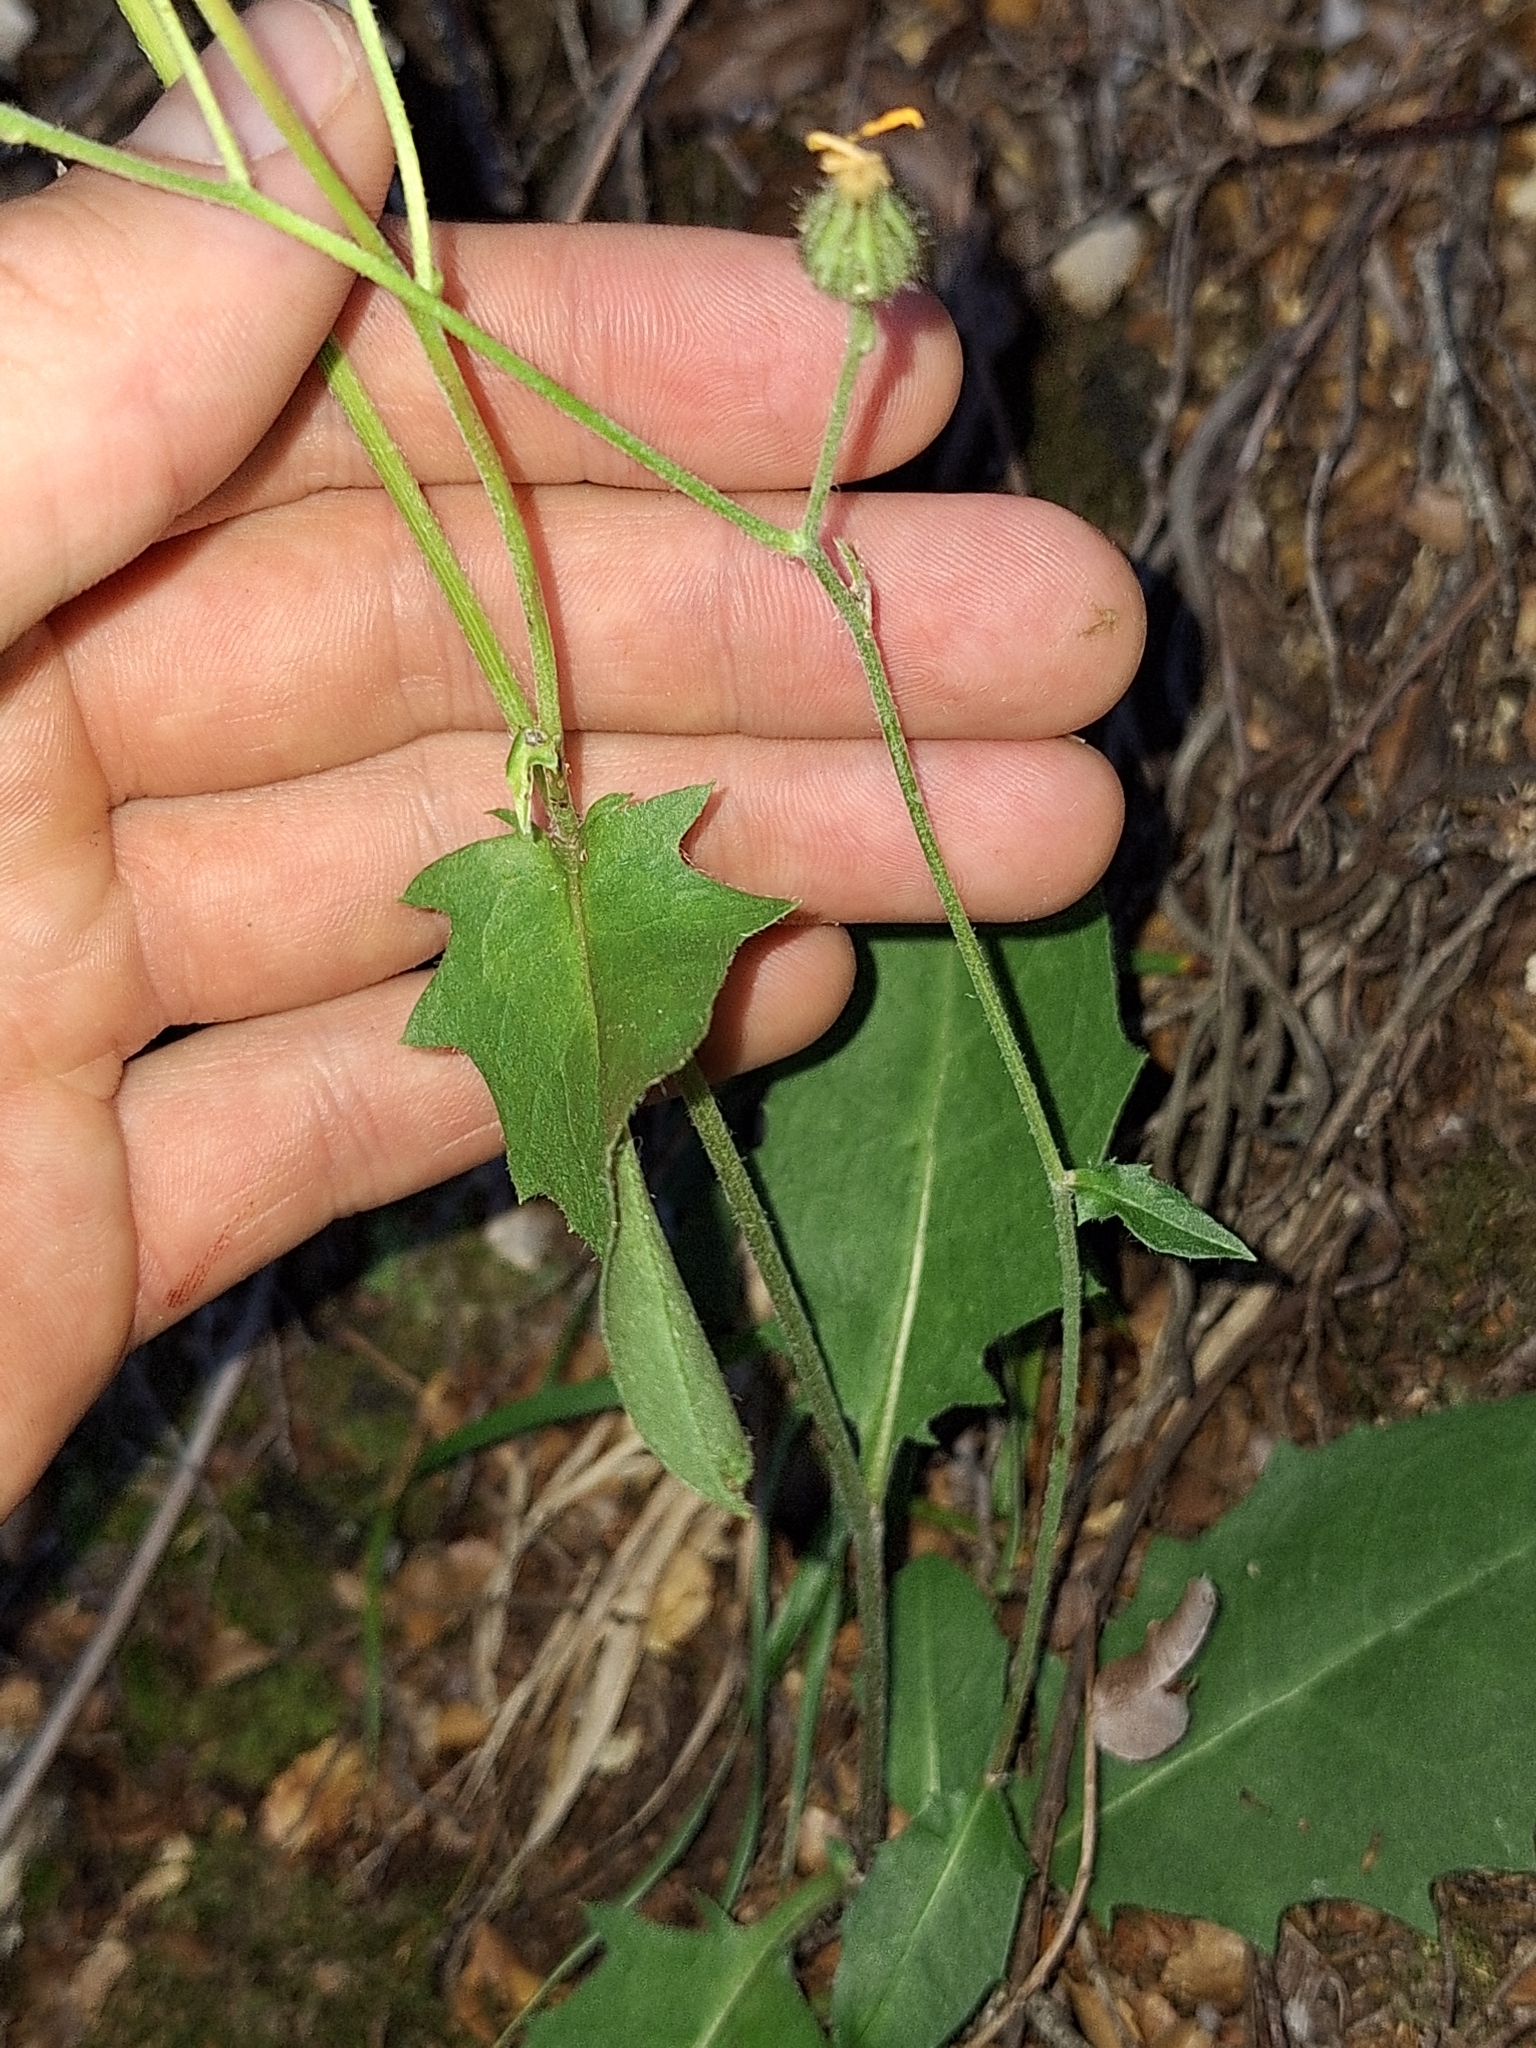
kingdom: Plantae
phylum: Tracheophyta
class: Magnoliopsida
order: Asterales
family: Asteraceae
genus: Hieracium
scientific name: Hieracium lepidulum
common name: Irregular-toothed hawkweed
